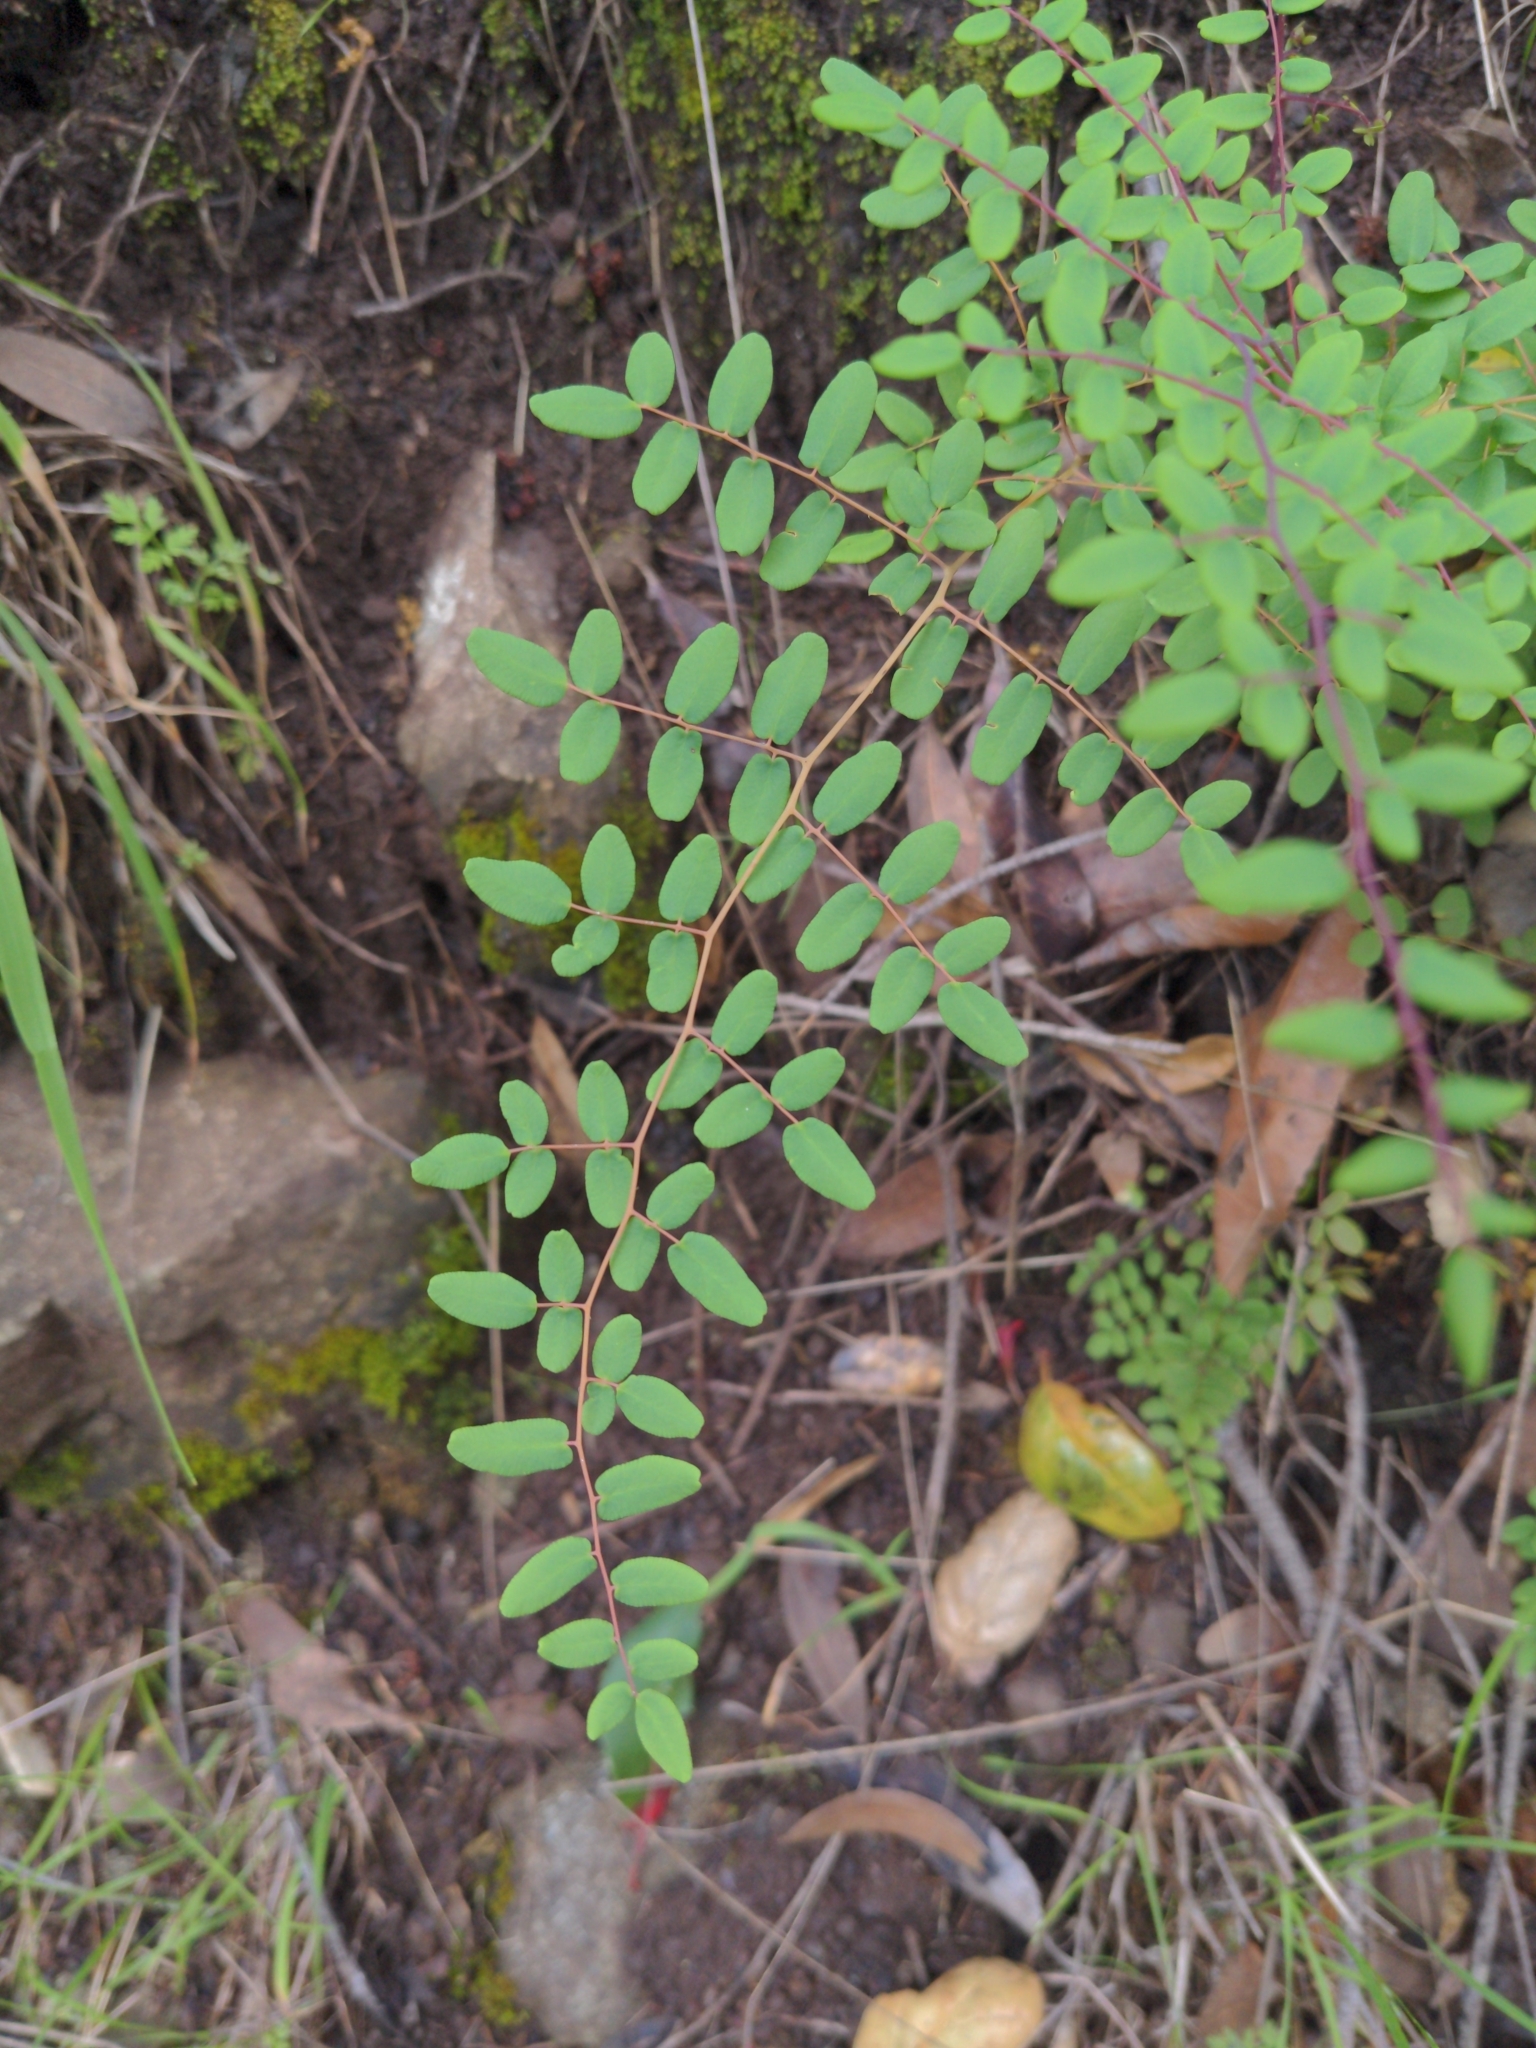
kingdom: Plantae
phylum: Tracheophyta
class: Polypodiopsida
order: Polypodiales
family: Pteridaceae
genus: Pellaea
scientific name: Pellaea andromedifolia
